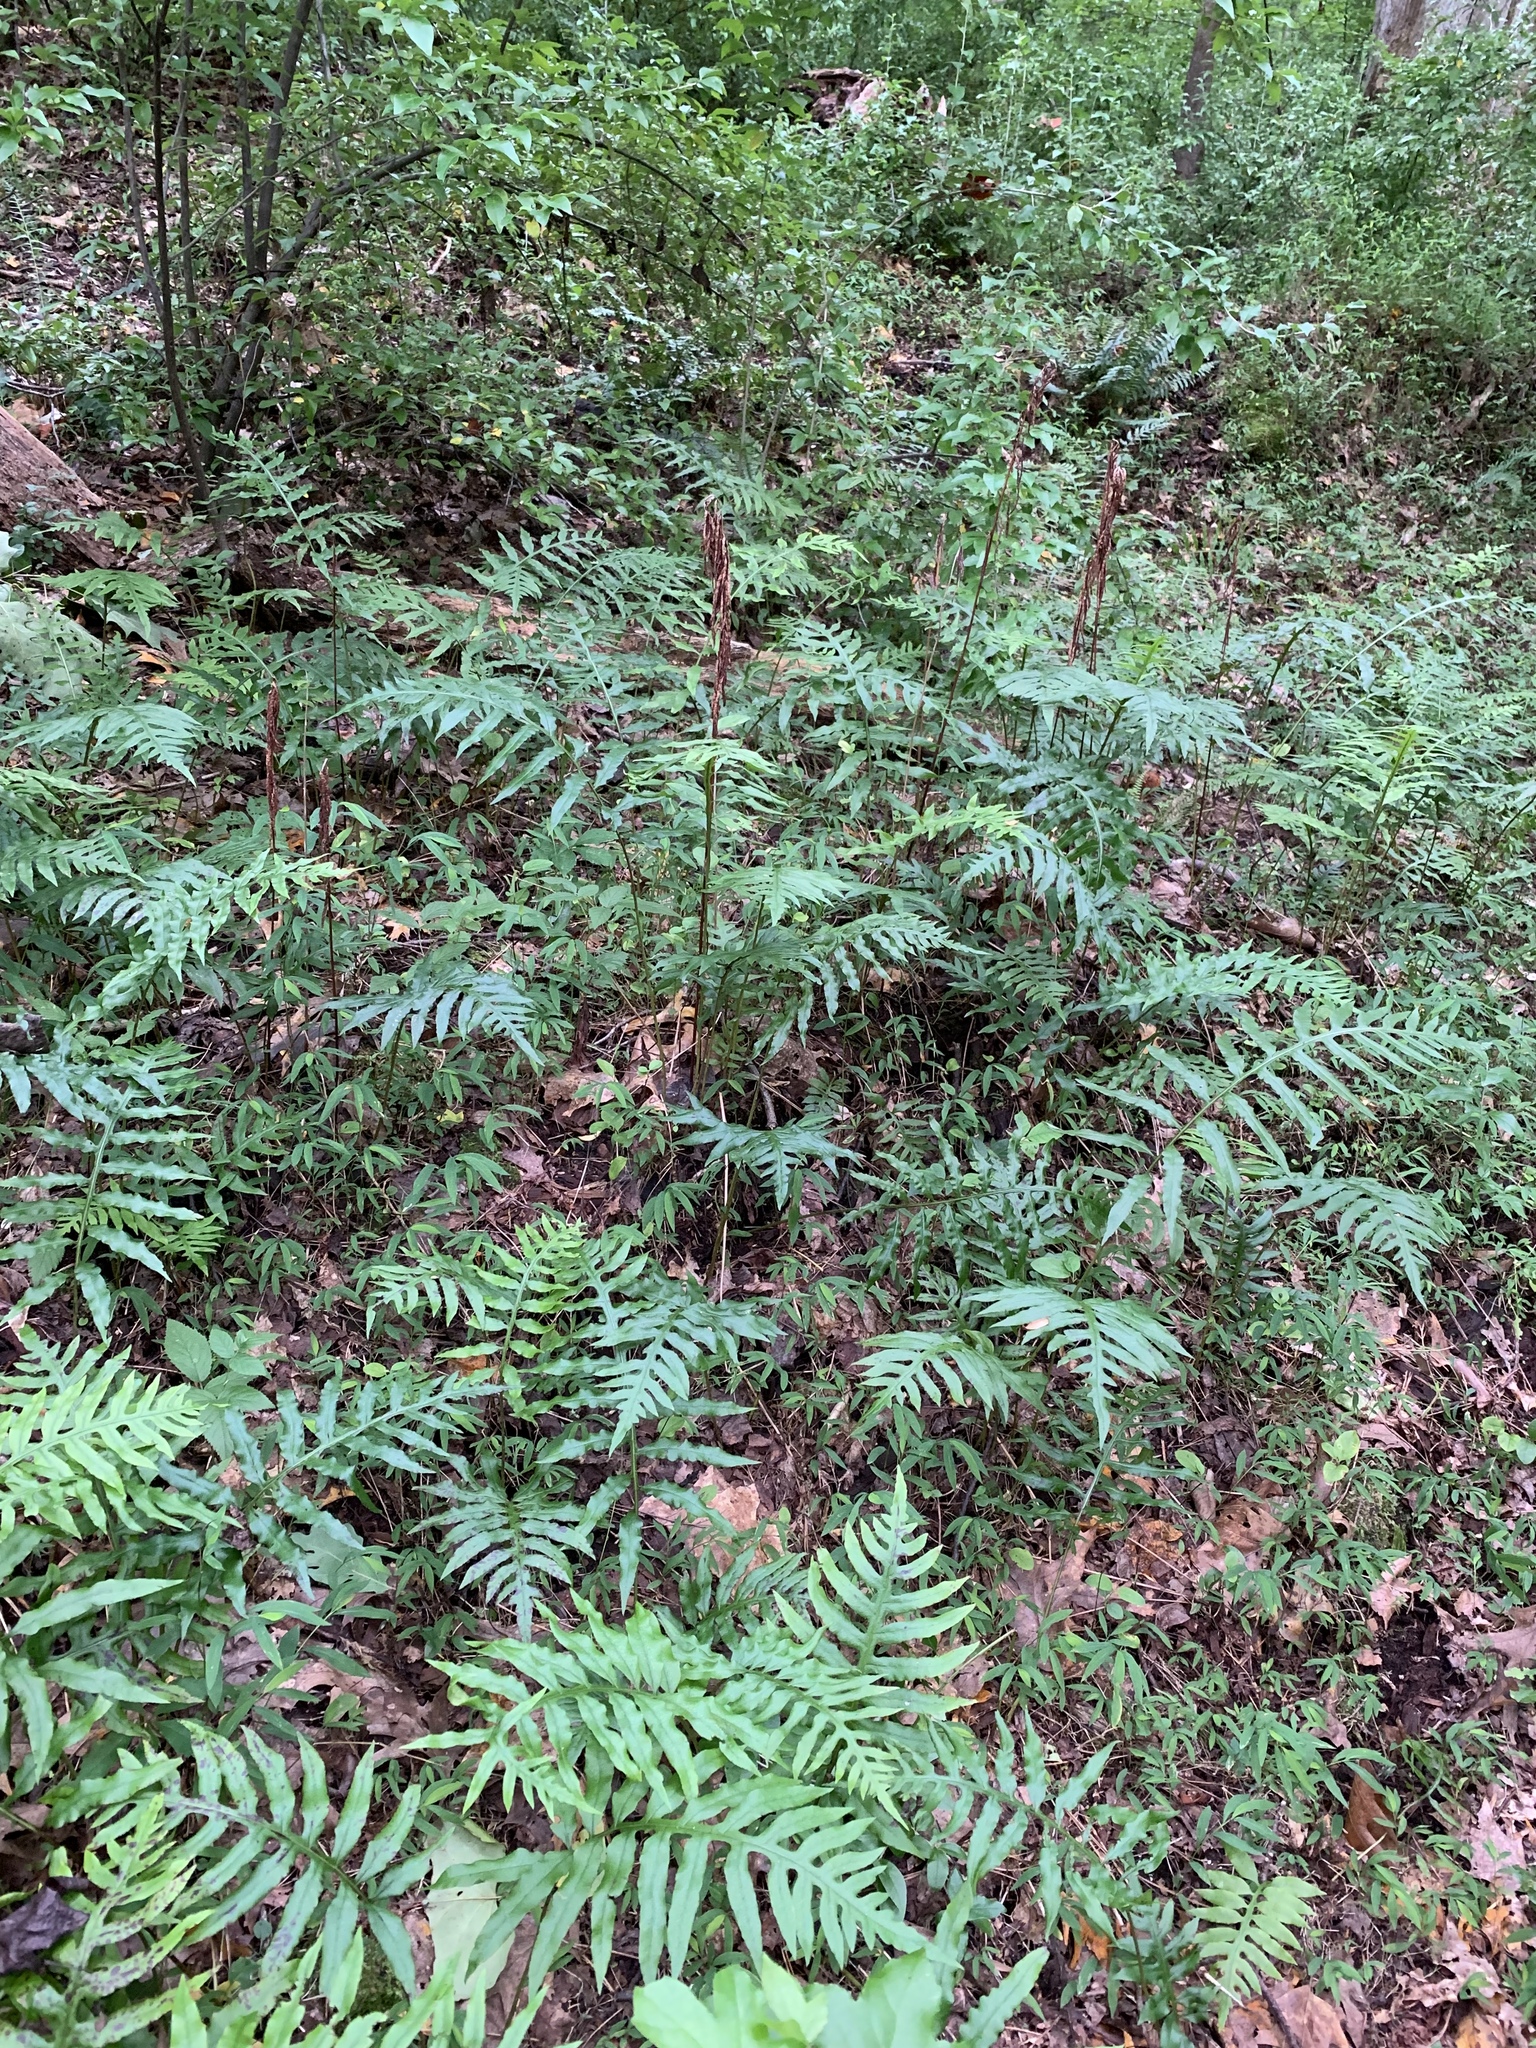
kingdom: Plantae
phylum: Tracheophyta
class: Polypodiopsida
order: Polypodiales
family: Blechnaceae
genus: Lorinseria
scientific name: Lorinseria areolata
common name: Dwarf chain fern
